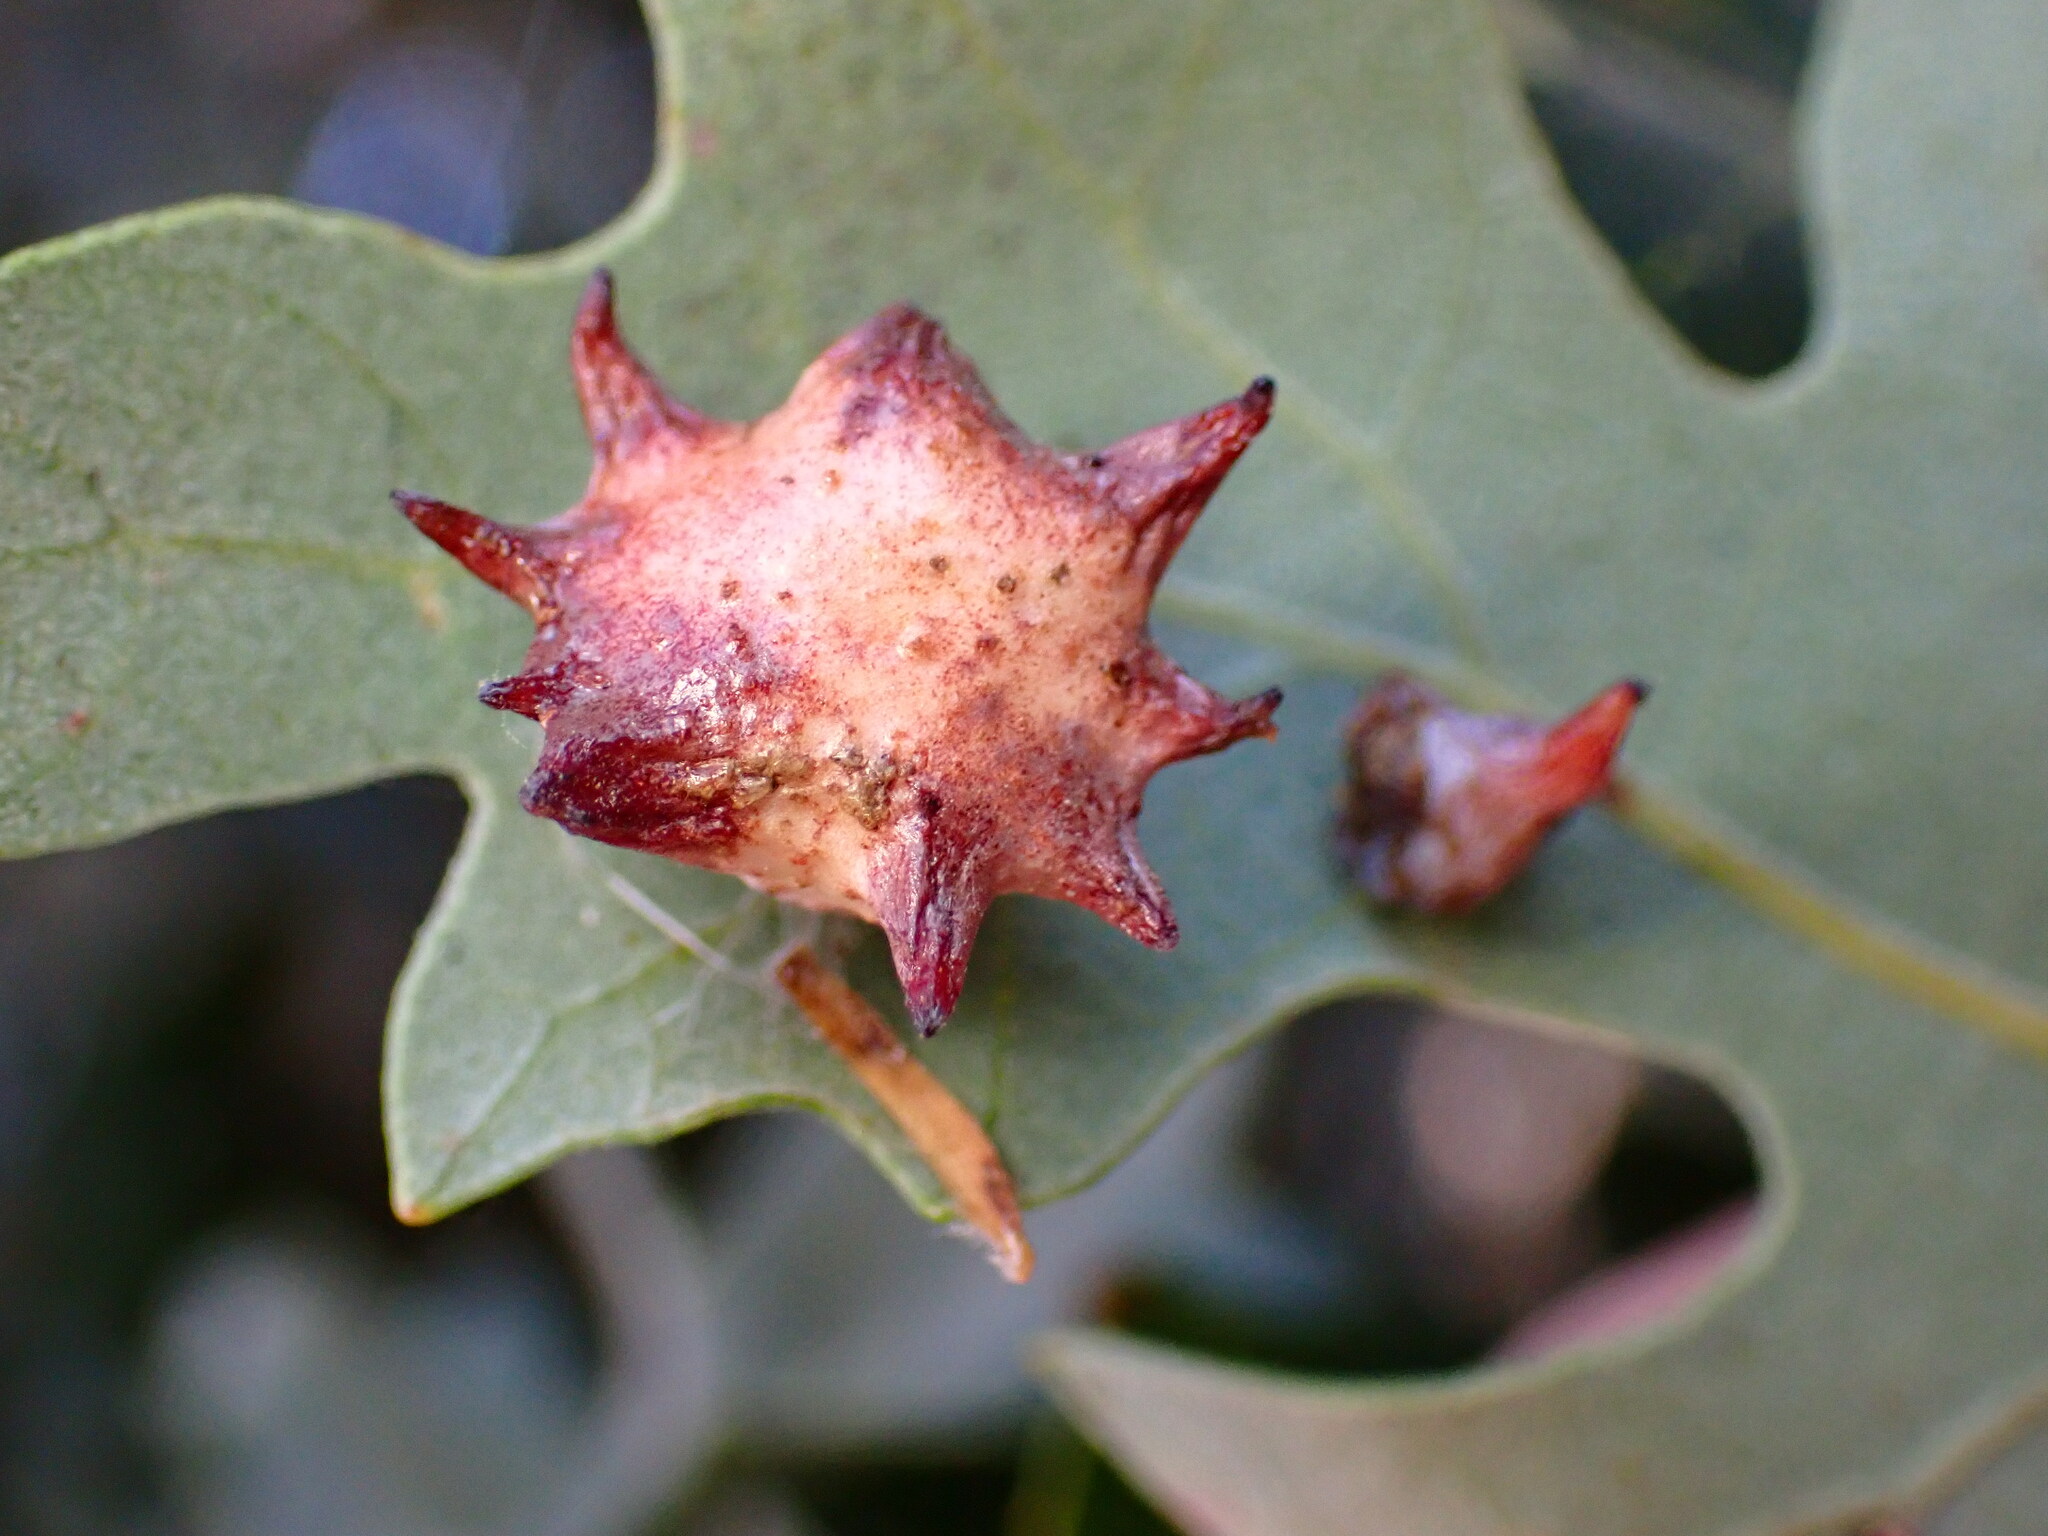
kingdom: Animalia
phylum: Arthropoda
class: Insecta
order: Hymenoptera
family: Cynipidae
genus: Cynips
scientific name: Cynips douglasi
